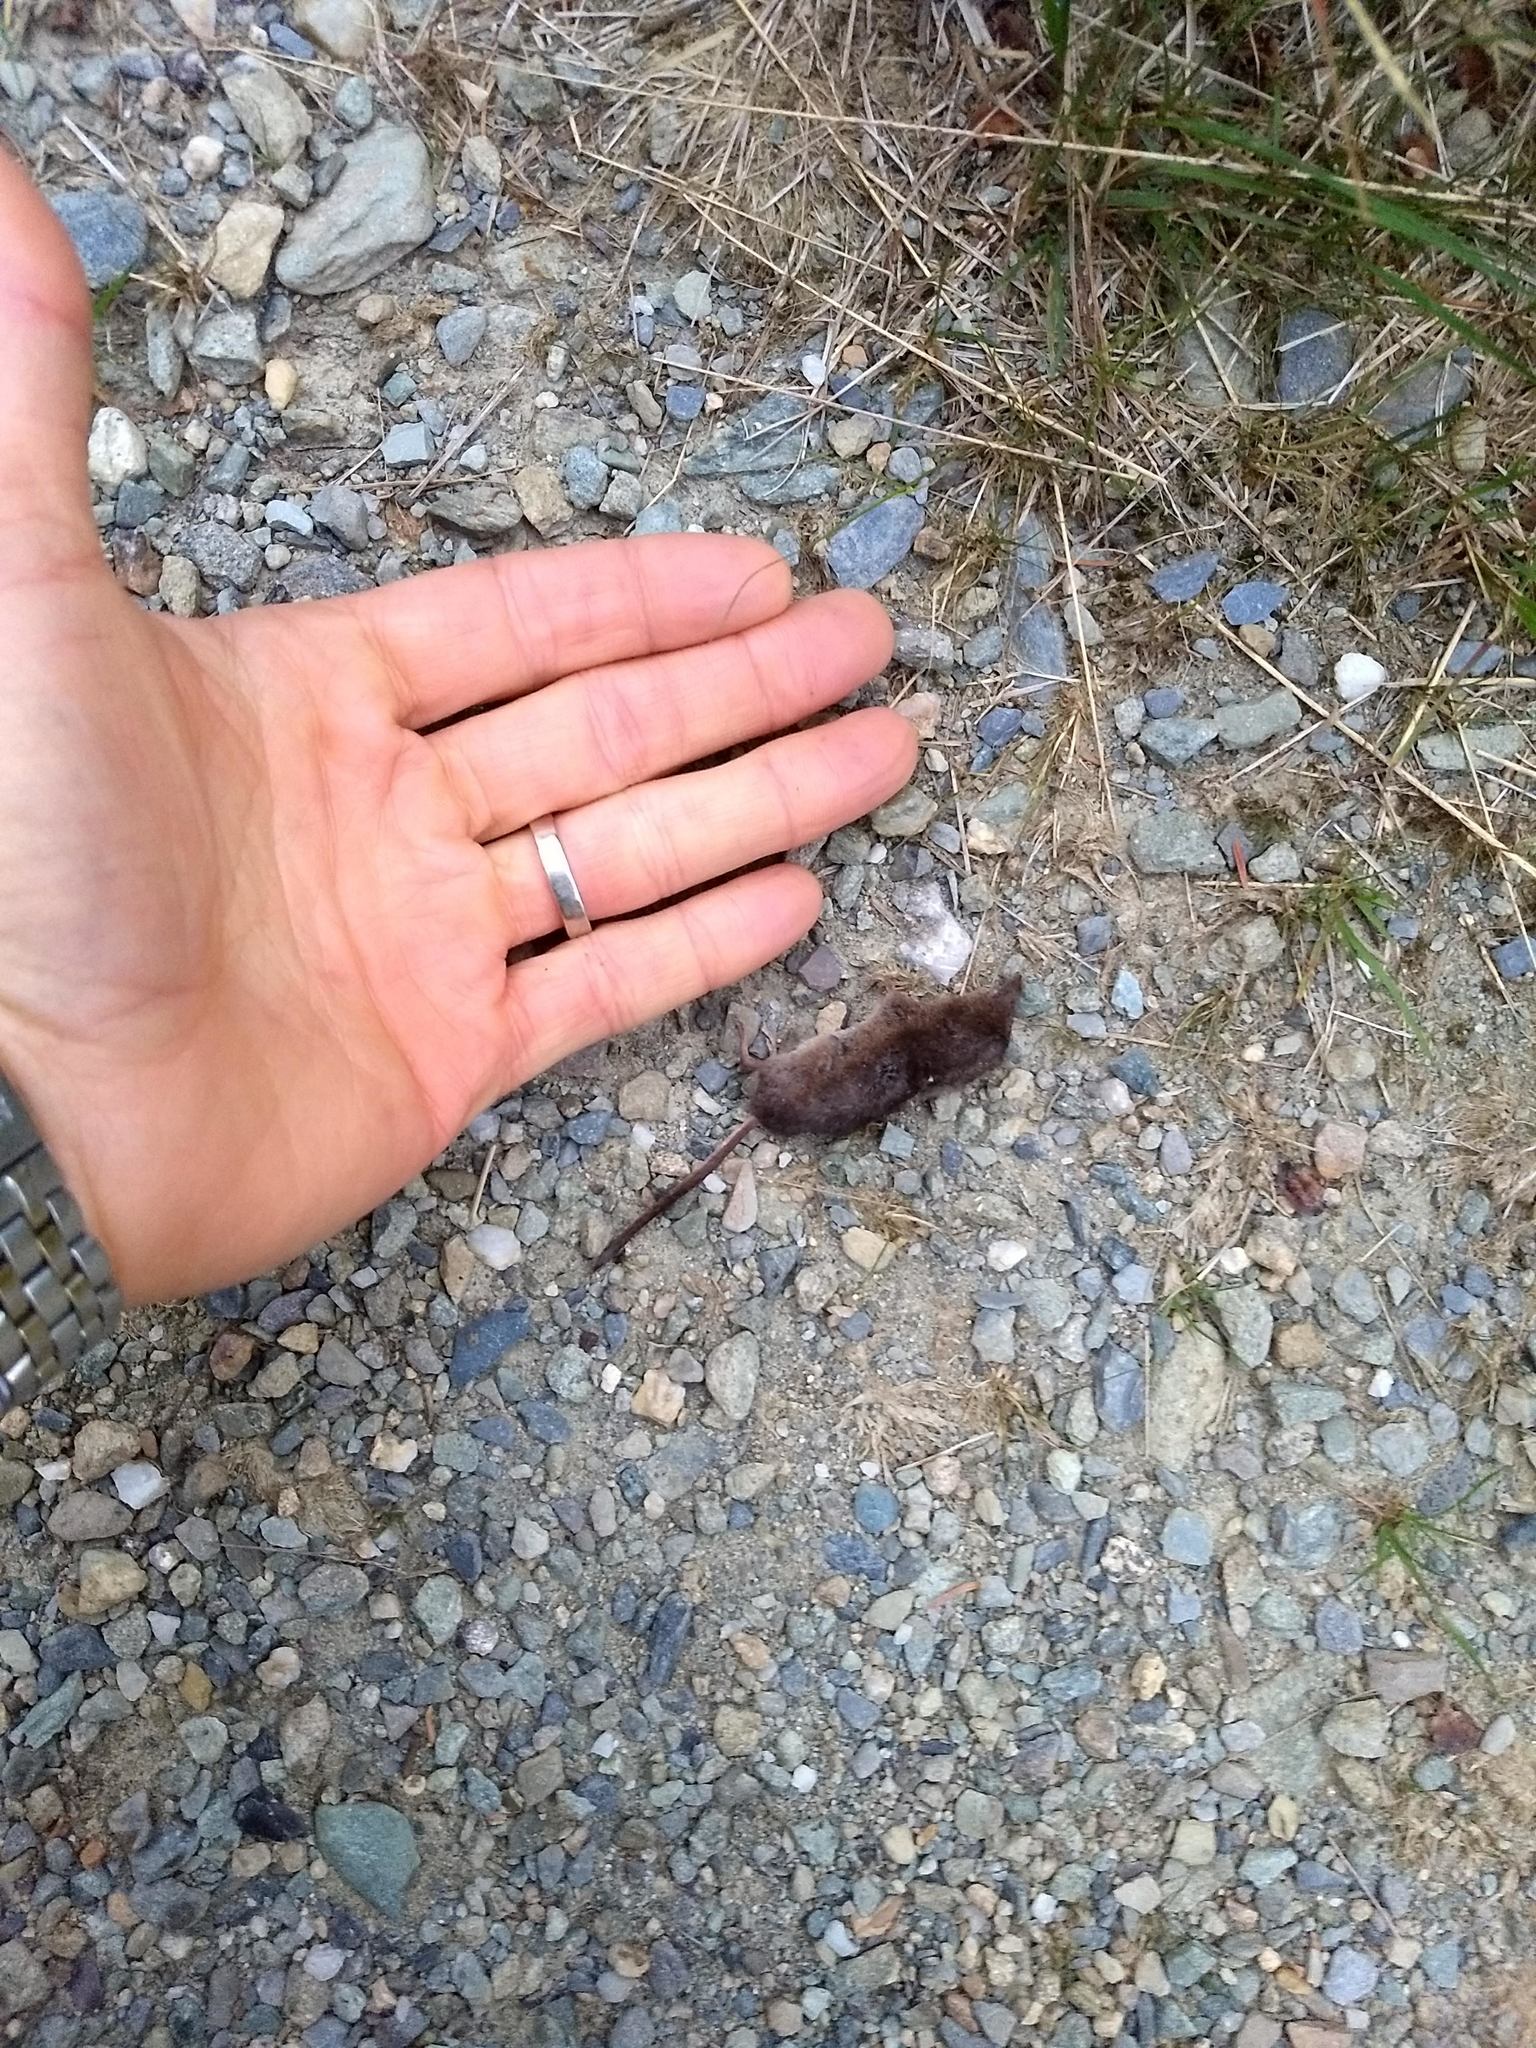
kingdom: Animalia
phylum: Chordata
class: Mammalia
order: Soricomorpha
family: Soricidae
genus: Sorex
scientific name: Sorex cinereus
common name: Cinereus shrew
